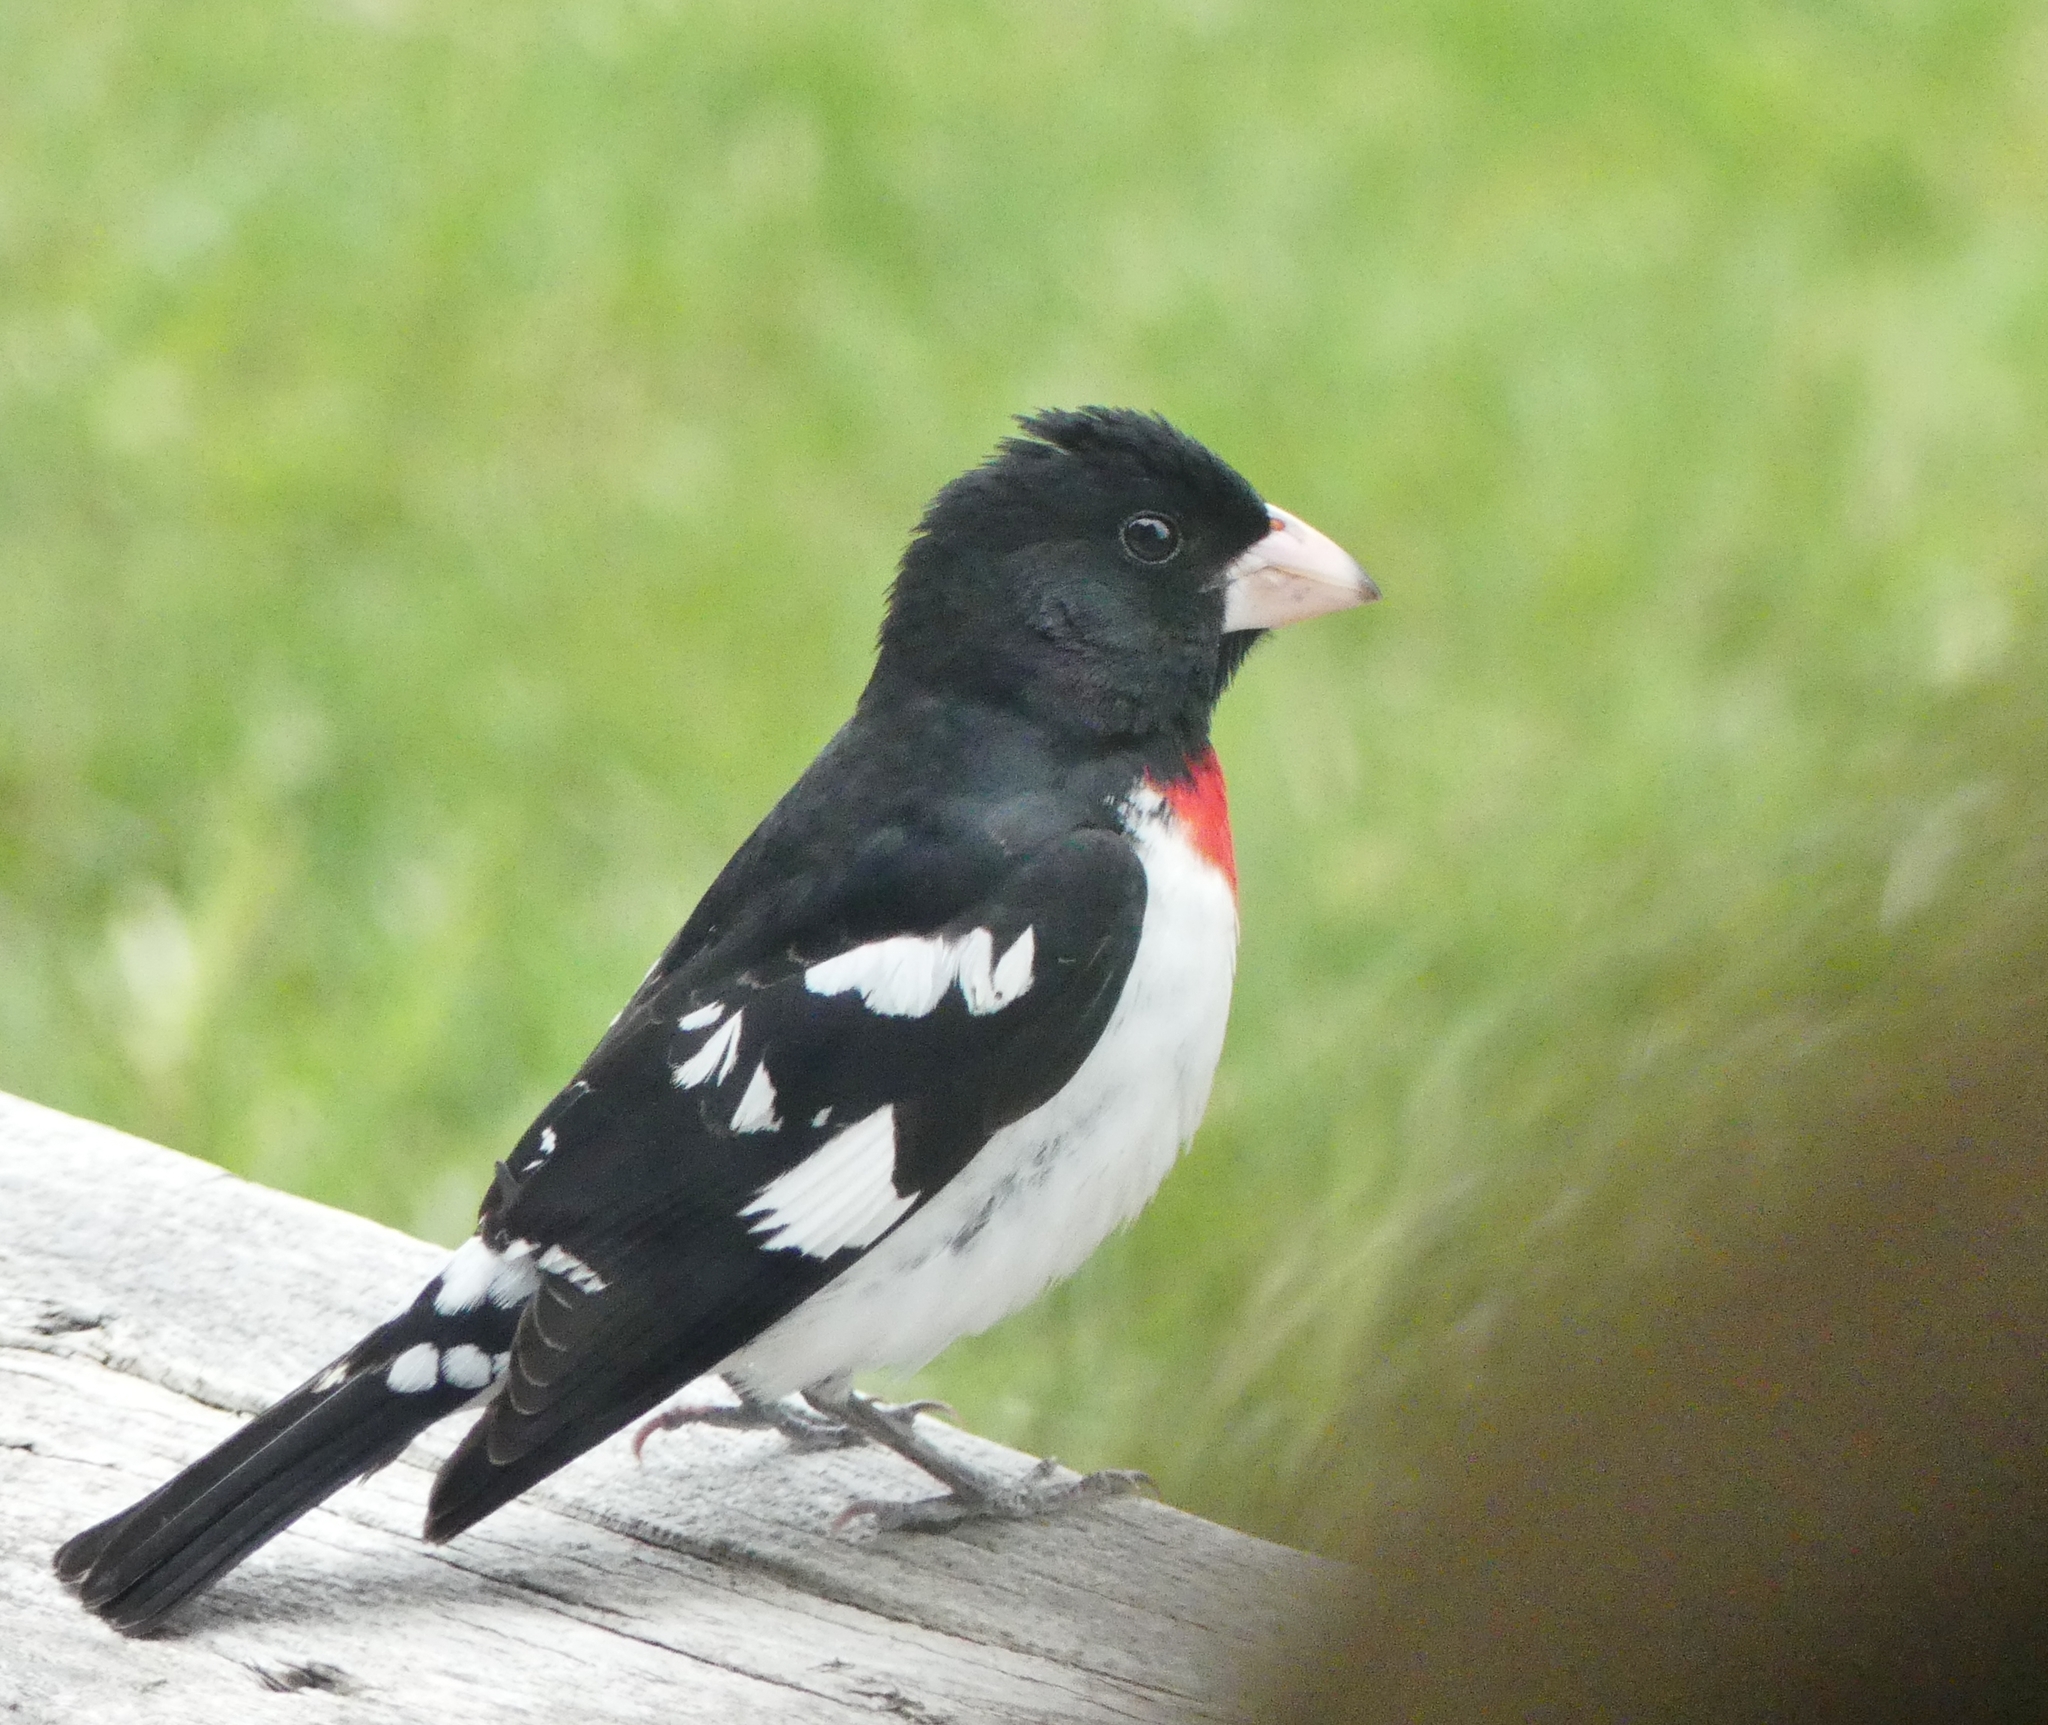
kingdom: Animalia
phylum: Chordata
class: Aves
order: Passeriformes
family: Cardinalidae
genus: Pheucticus
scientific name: Pheucticus ludovicianus
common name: Rose-breasted grosbeak
